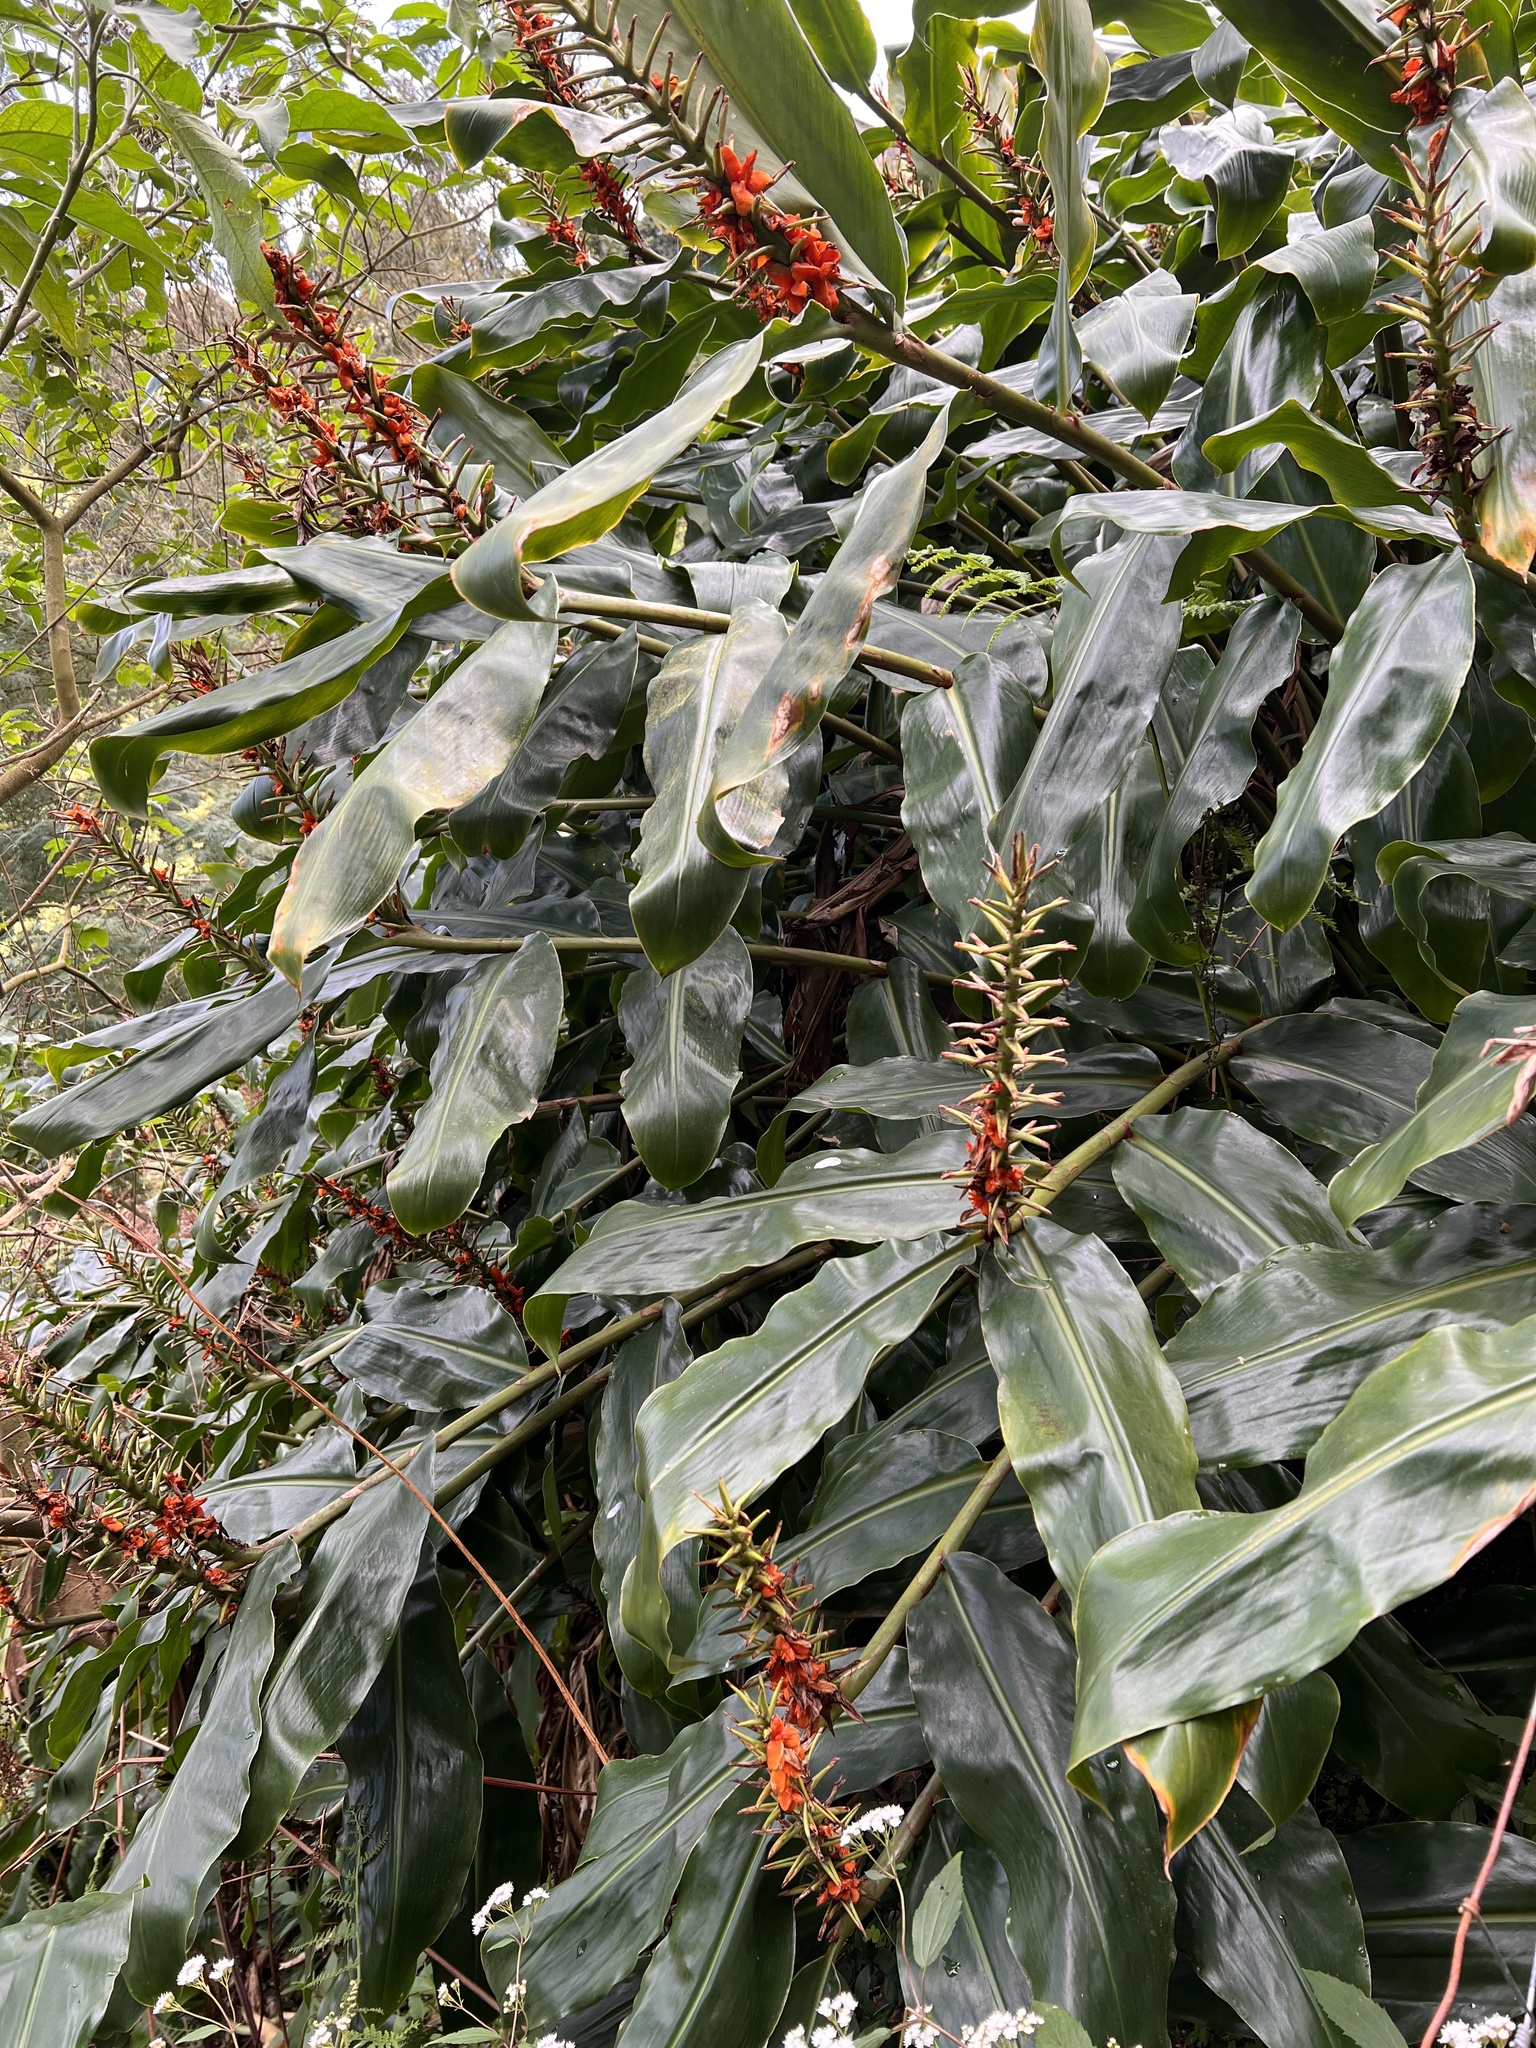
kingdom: Plantae
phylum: Tracheophyta
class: Liliopsida
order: Zingiberales
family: Zingiberaceae
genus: Hedychium
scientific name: Hedychium gardnerianum
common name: Himalayan ginger
